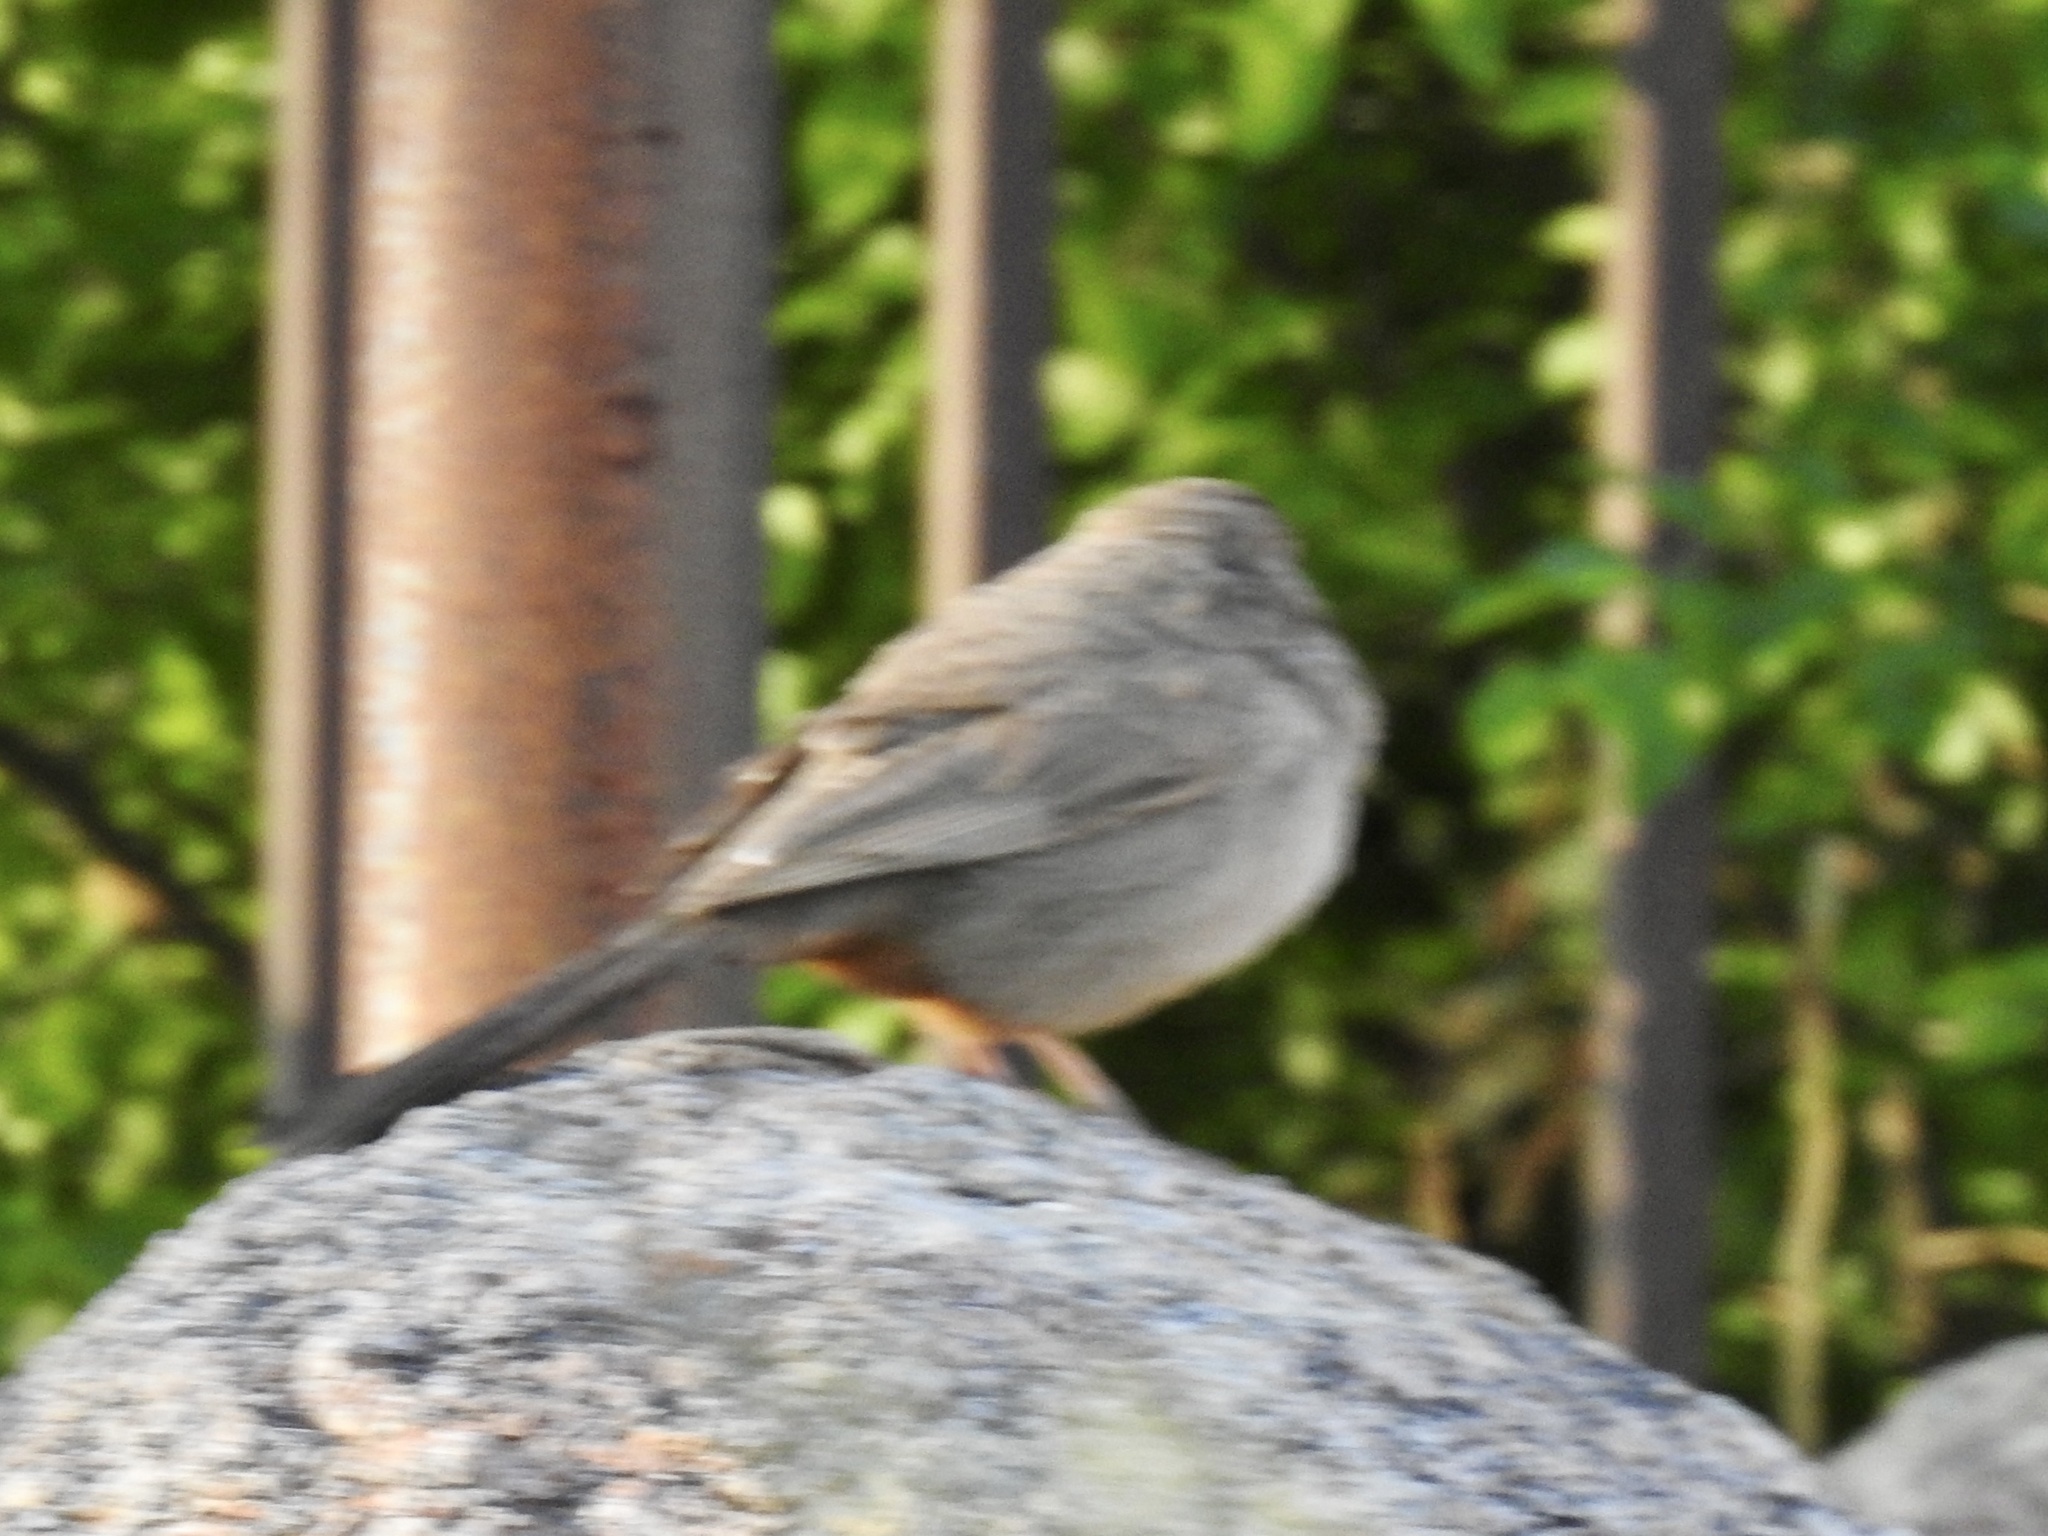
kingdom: Animalia
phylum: Chordata
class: Aves
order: Passeriformes
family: Passerellidae
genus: Melozone
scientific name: Melozone fusca
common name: Canyon towhee
